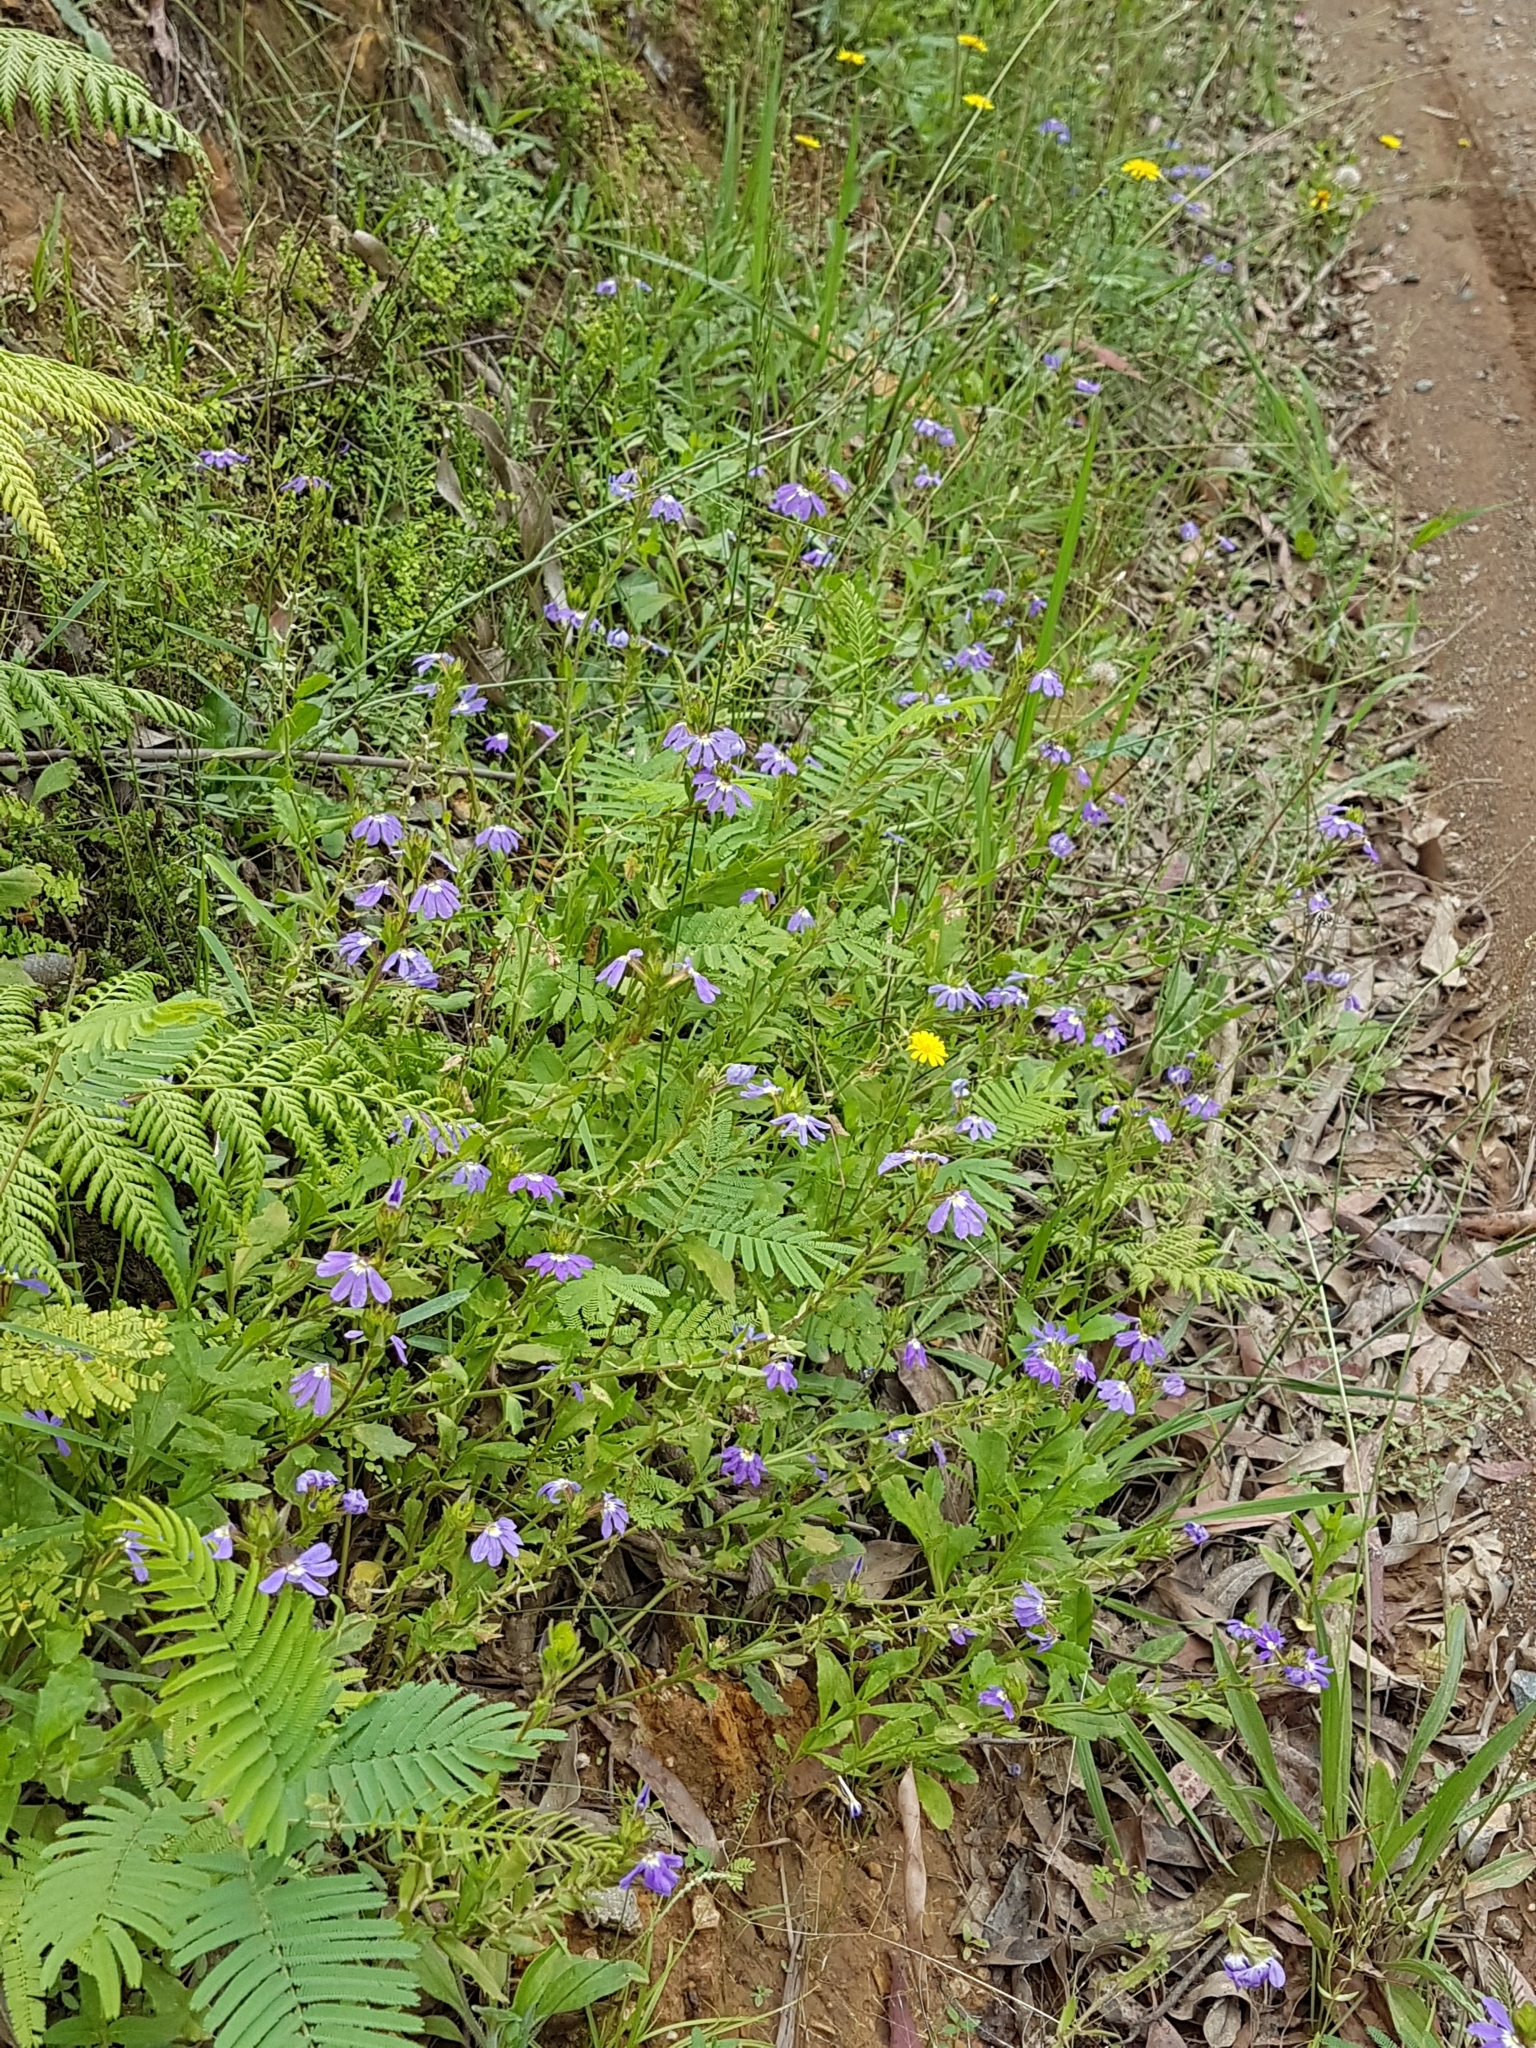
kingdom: Plantae
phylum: Tracheophyta
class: Magnoliopsida
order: Asterales
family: Goodeniaceae
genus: Scaevola
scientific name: Scaevola aemula
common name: Common fanflower
